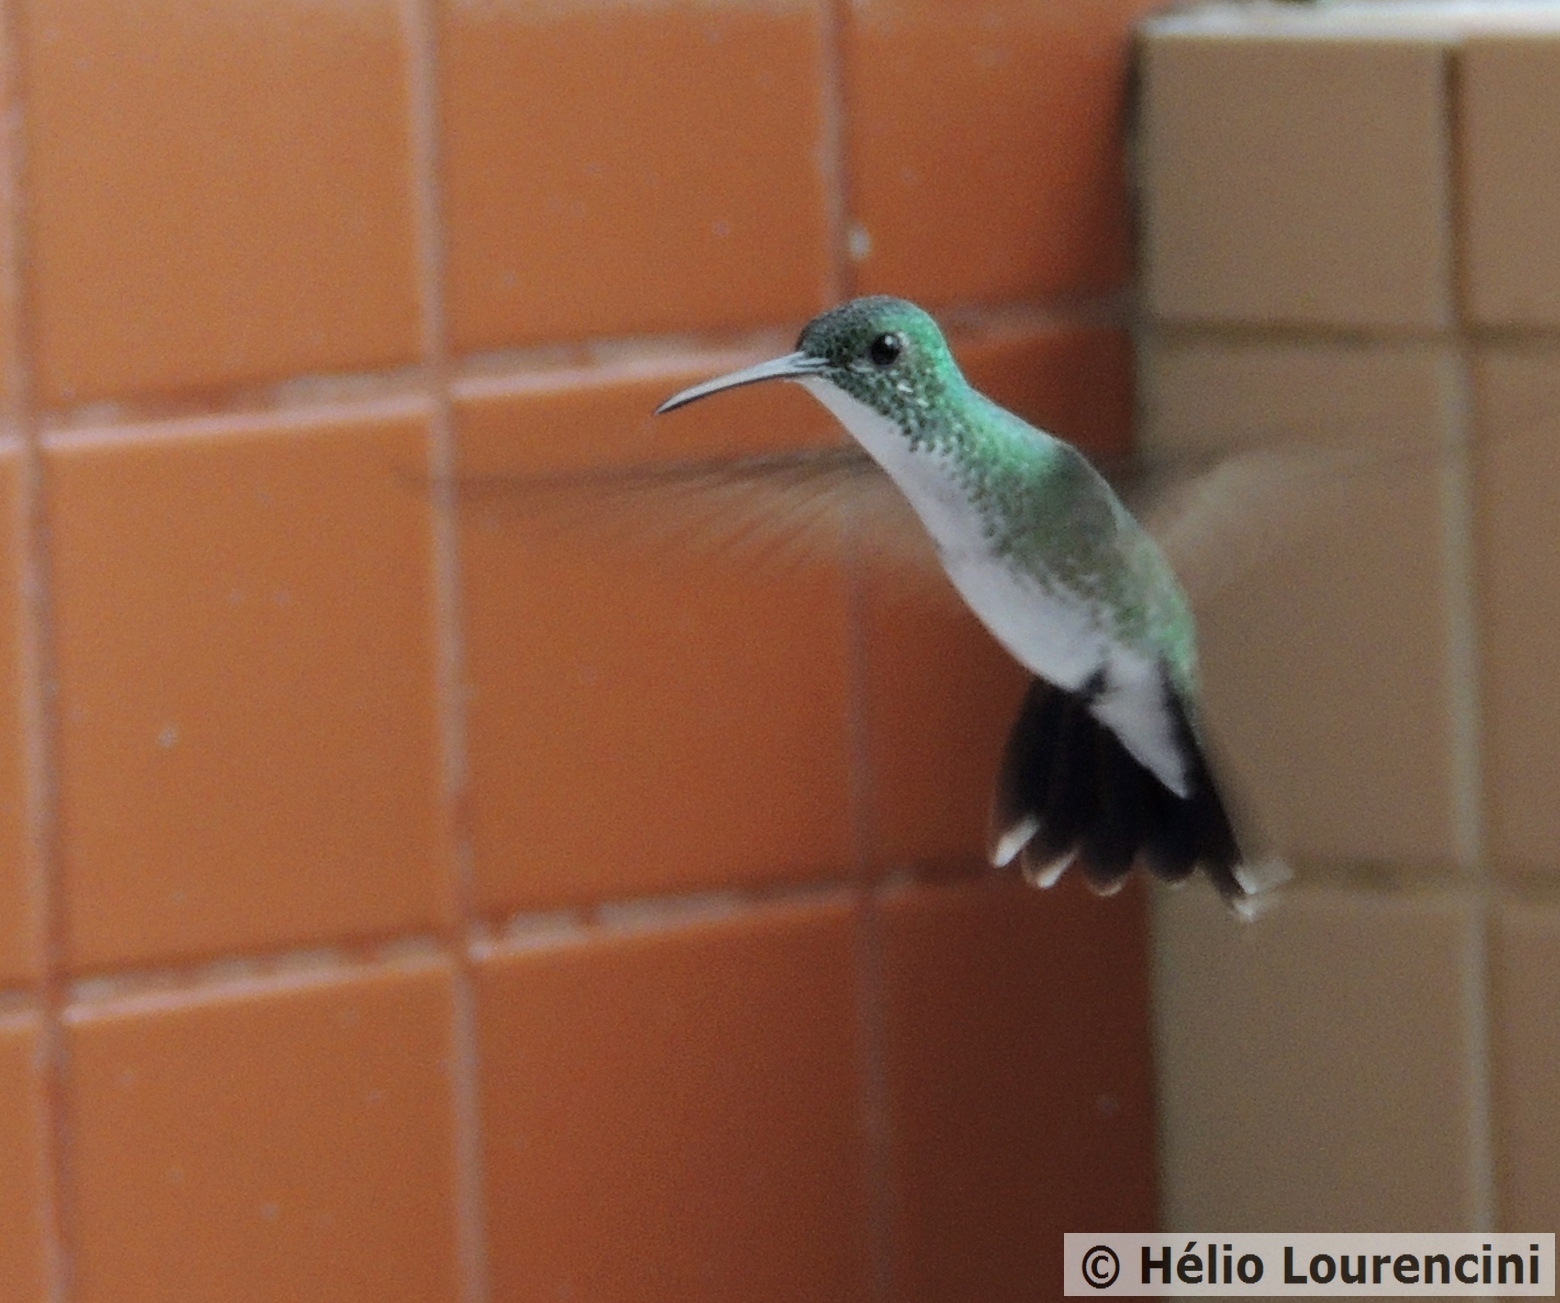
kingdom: Animalia
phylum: Chordata
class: Aves
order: Apodiformes
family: Trochilidae
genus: Chrysuronia
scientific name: Chrysuronia leucogaster
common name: Plain-bellied emerald
